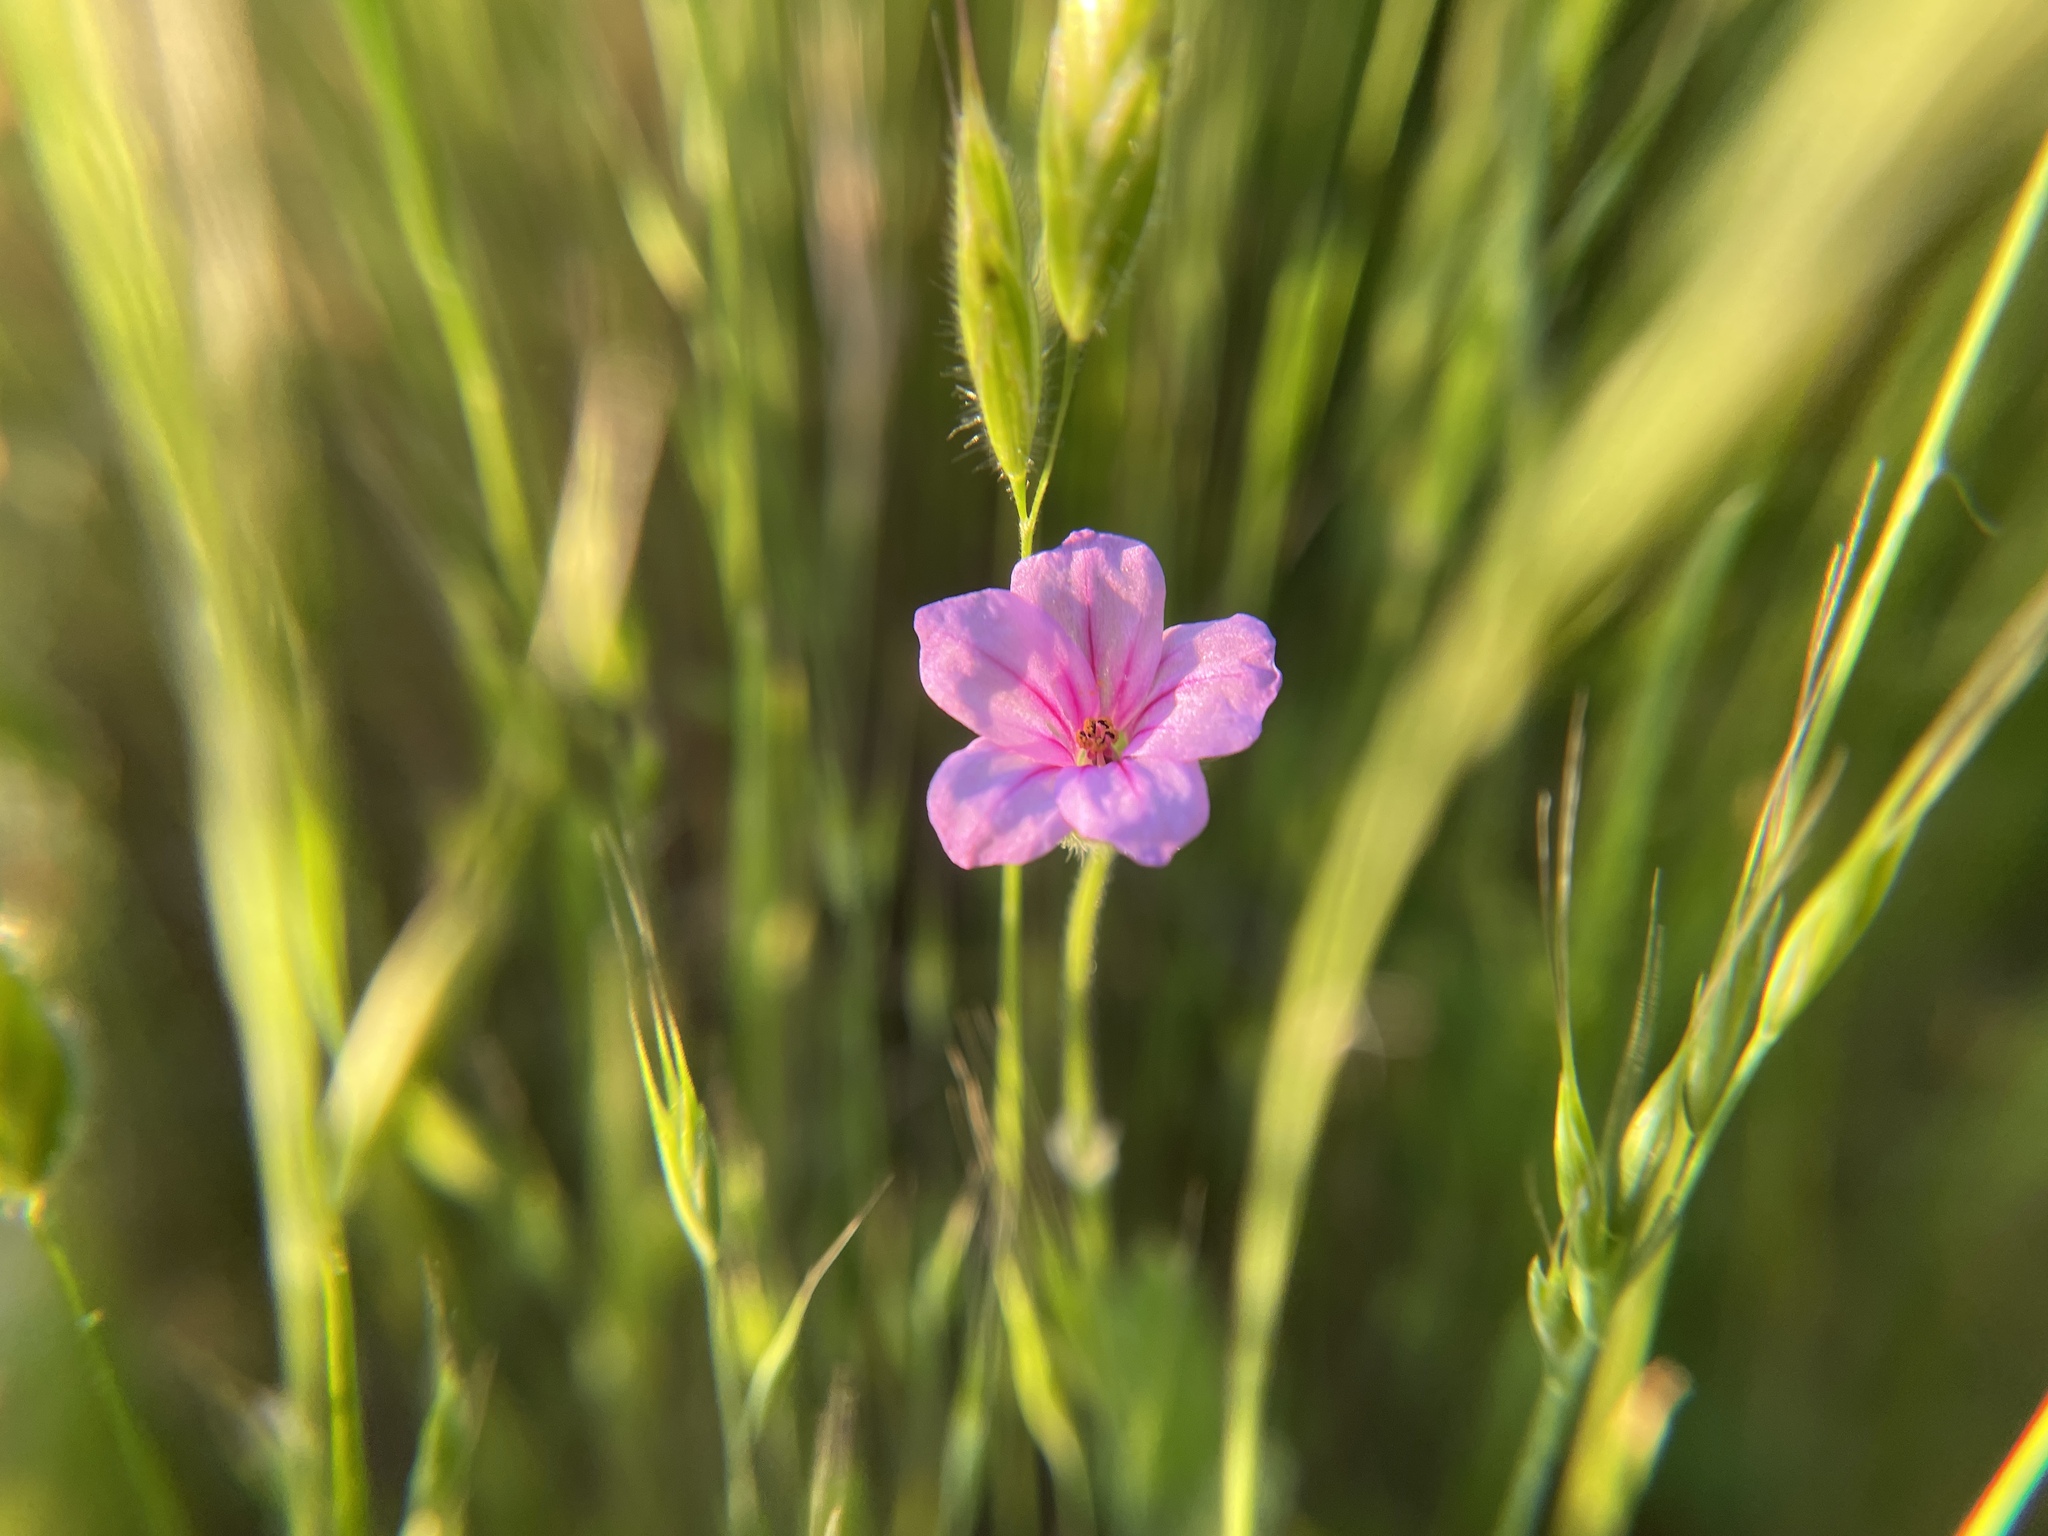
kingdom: Plantae
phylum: Tracheophyta
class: Magnoliopsida
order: Geraniales
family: Geraniaceae
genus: Erodium
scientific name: Erodium botrys
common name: Mediterranean stork's-bill
